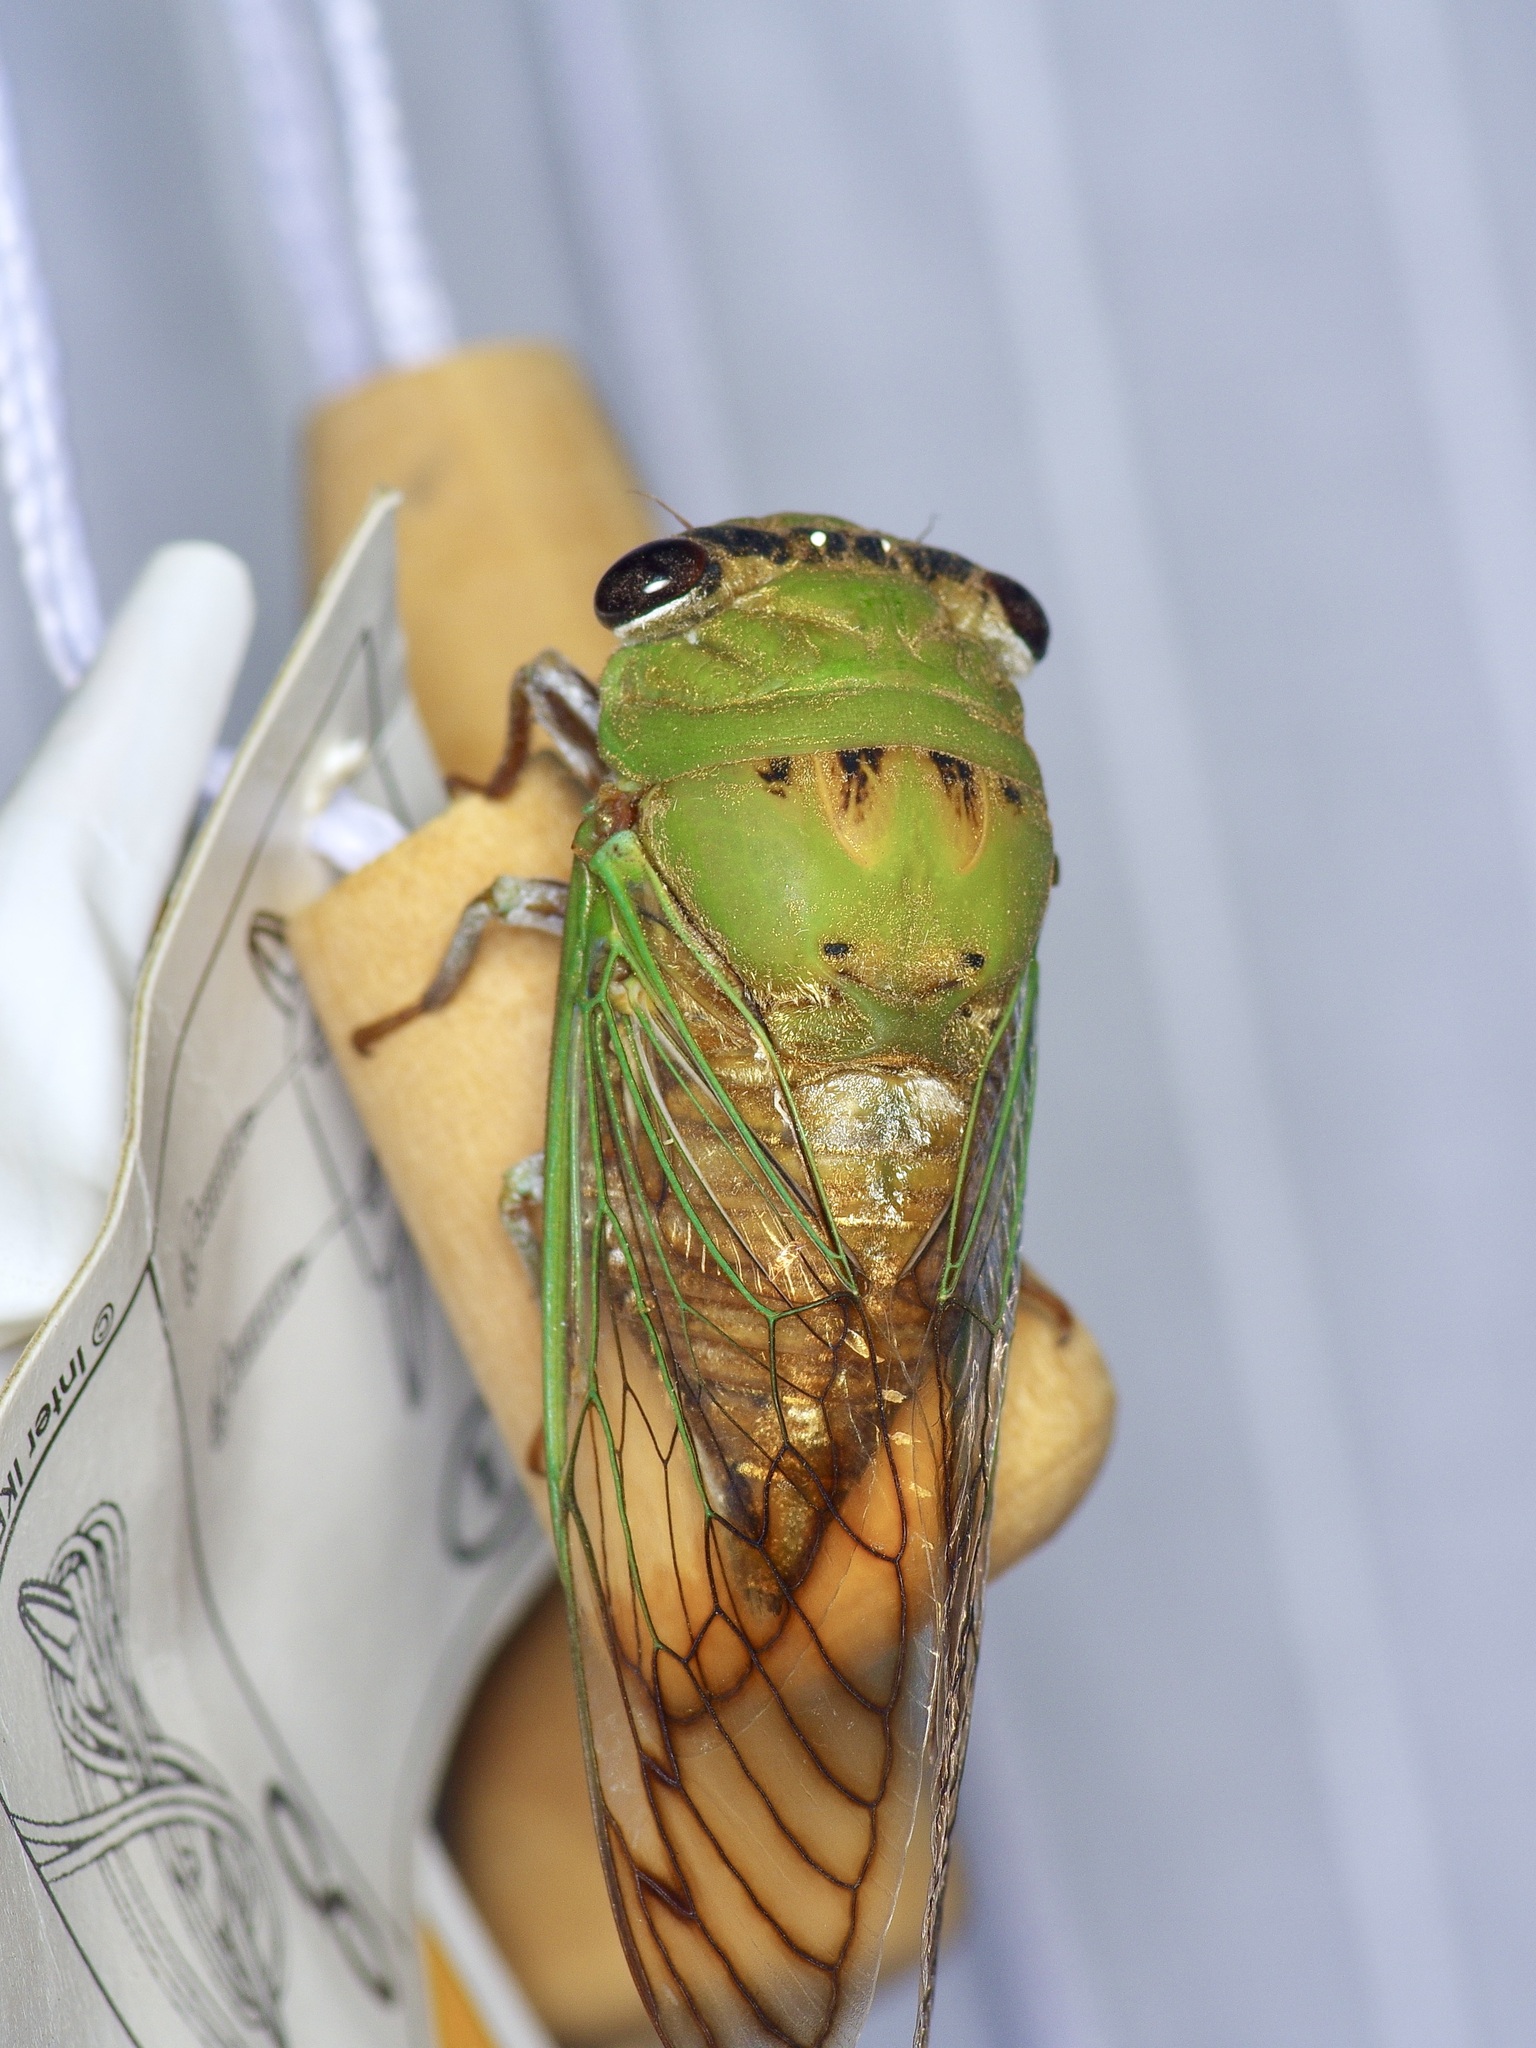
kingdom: Animalia
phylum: Arthropoda
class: Insecta
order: Hemiptera
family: Cicadidae
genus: Neotibicen
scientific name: Neotibicen superbus
